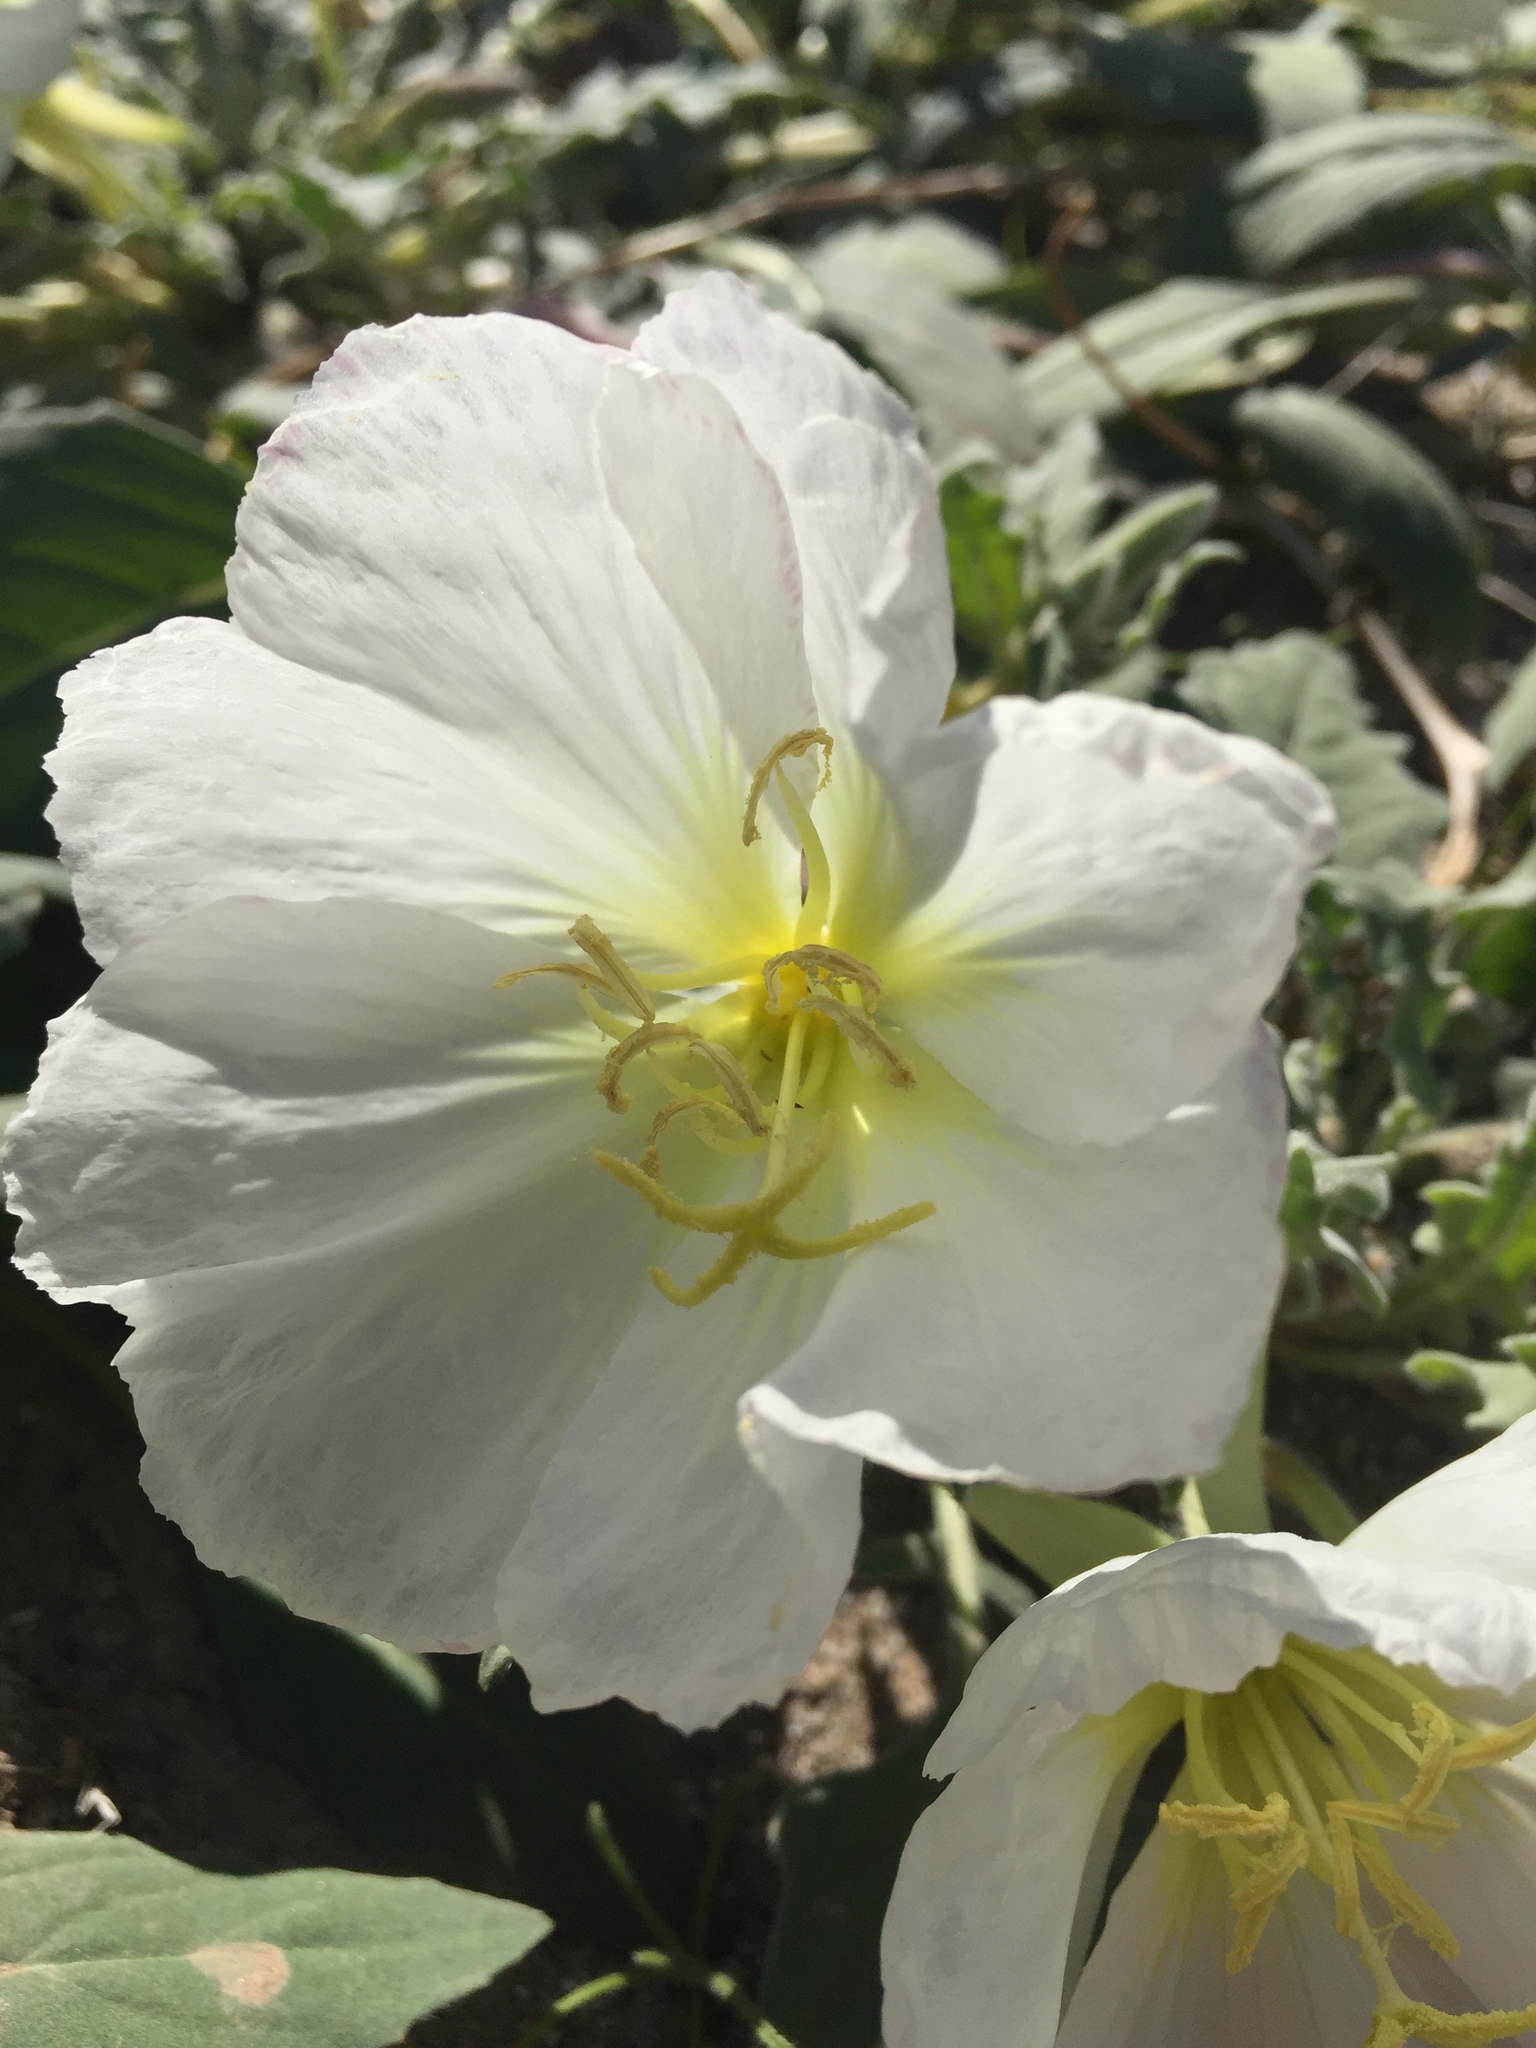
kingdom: Plantae
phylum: Tracheophyta
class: Magnoliopsida
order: Myrtales
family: Onagraceae
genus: Oenothera
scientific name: Oenothera deltoides
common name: Basket evening-primrose
